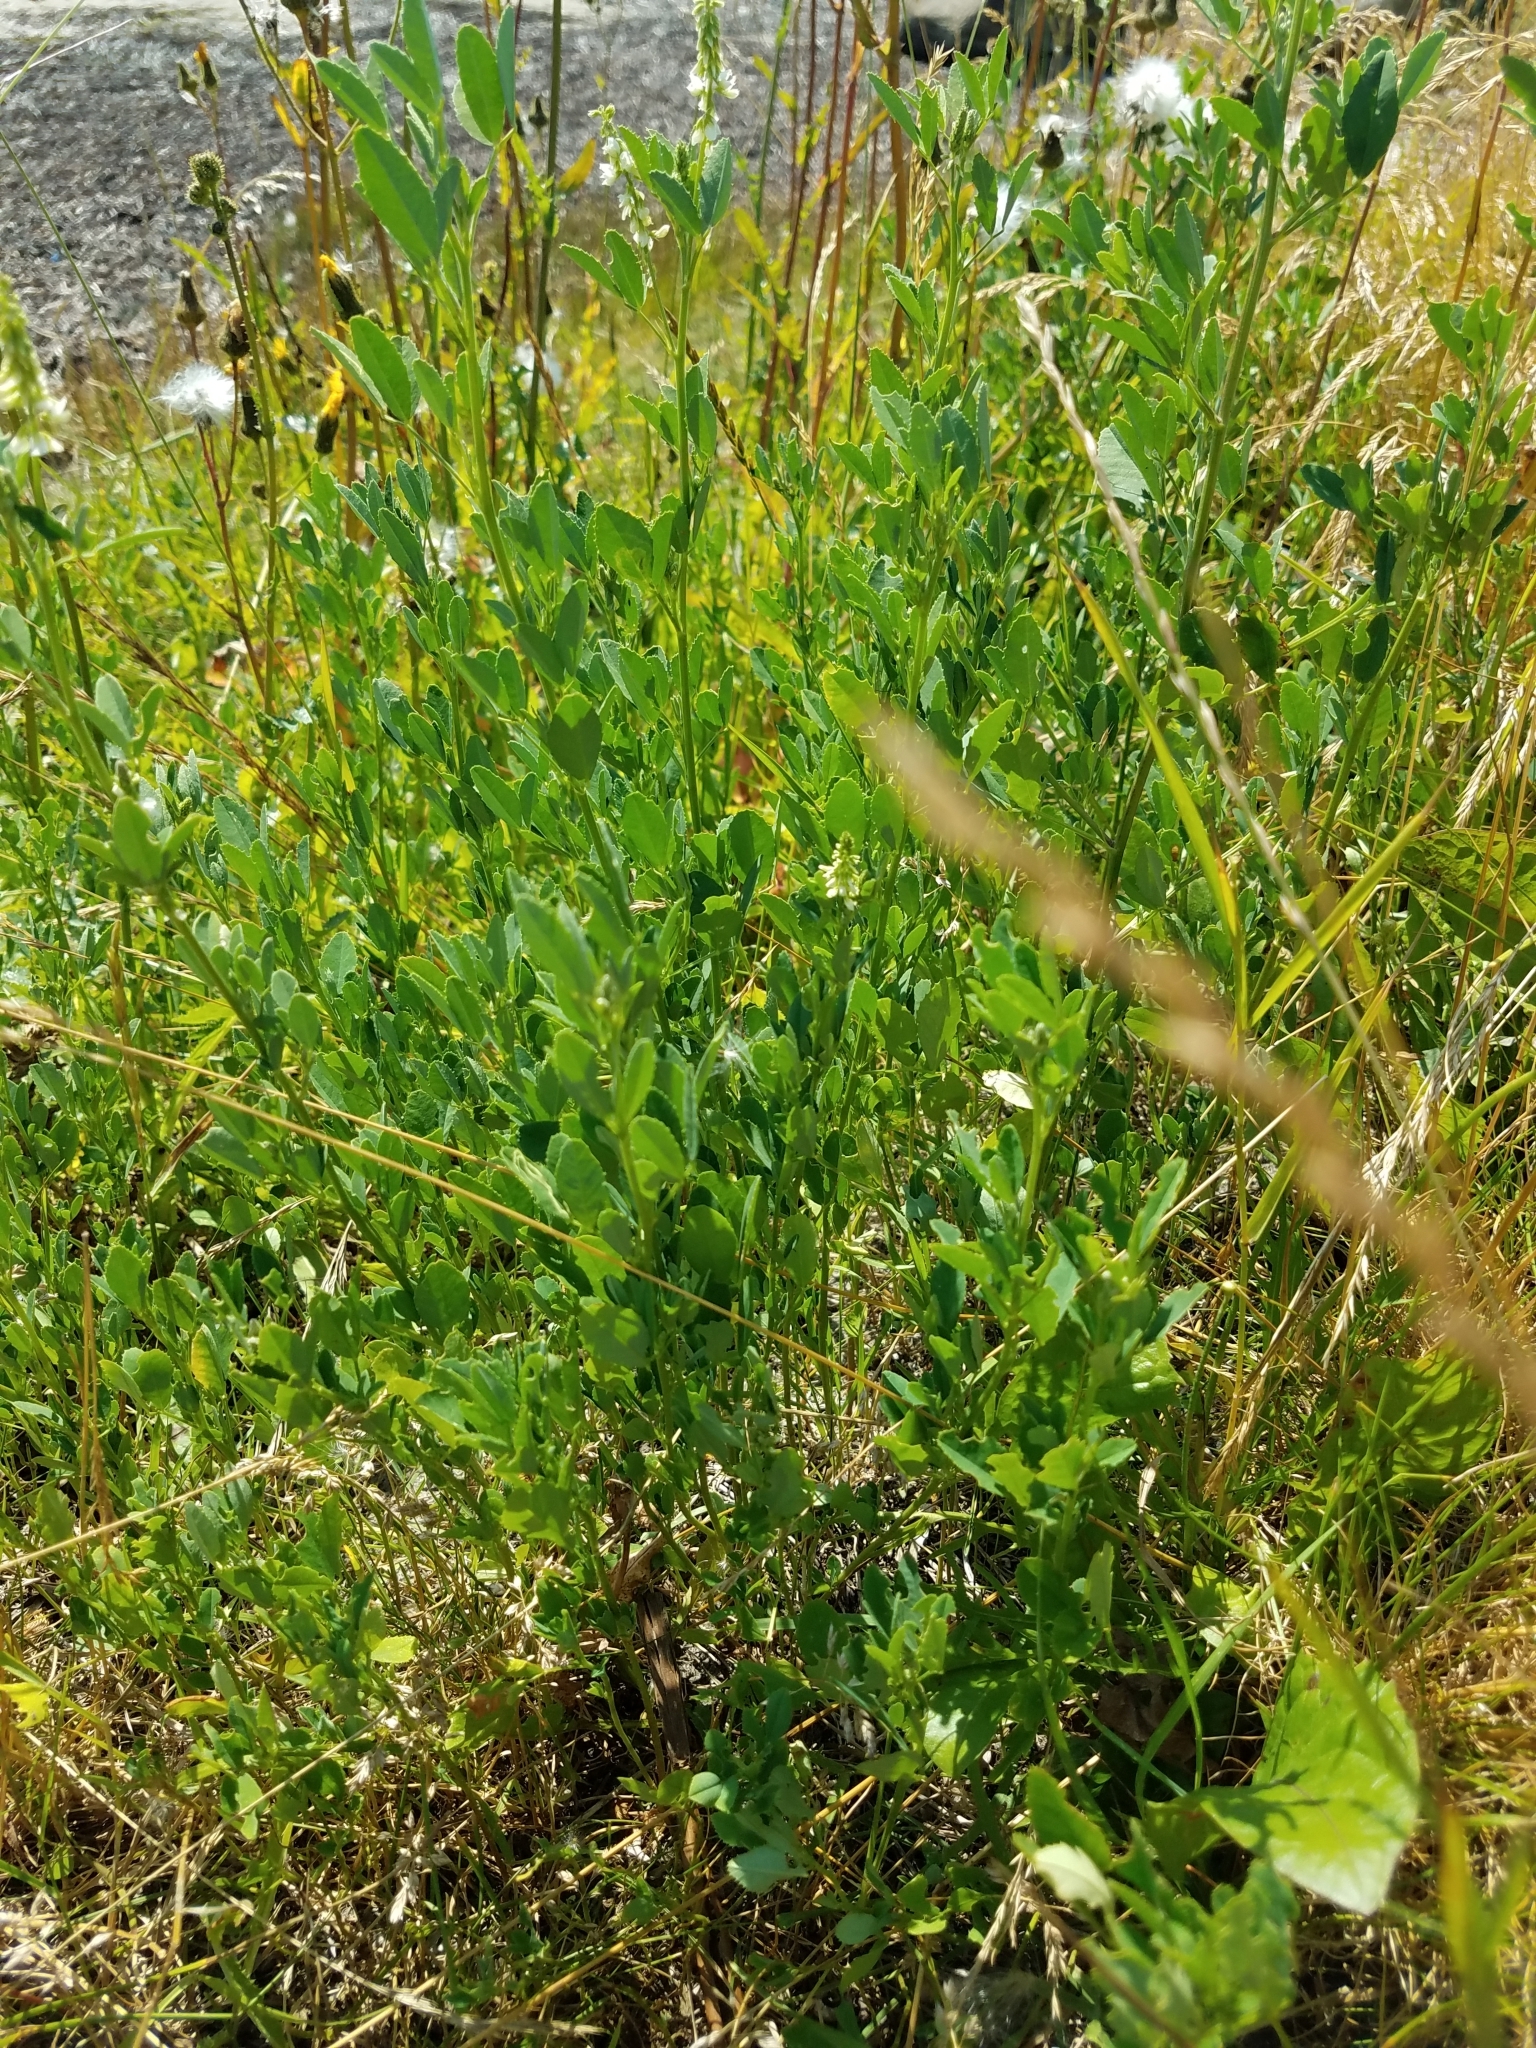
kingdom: Plantae
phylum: Tracheophyta
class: Magnoliopsida
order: Fabales
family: Fabaceae
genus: Melilotus
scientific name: Melilotus albus
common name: White melilot
